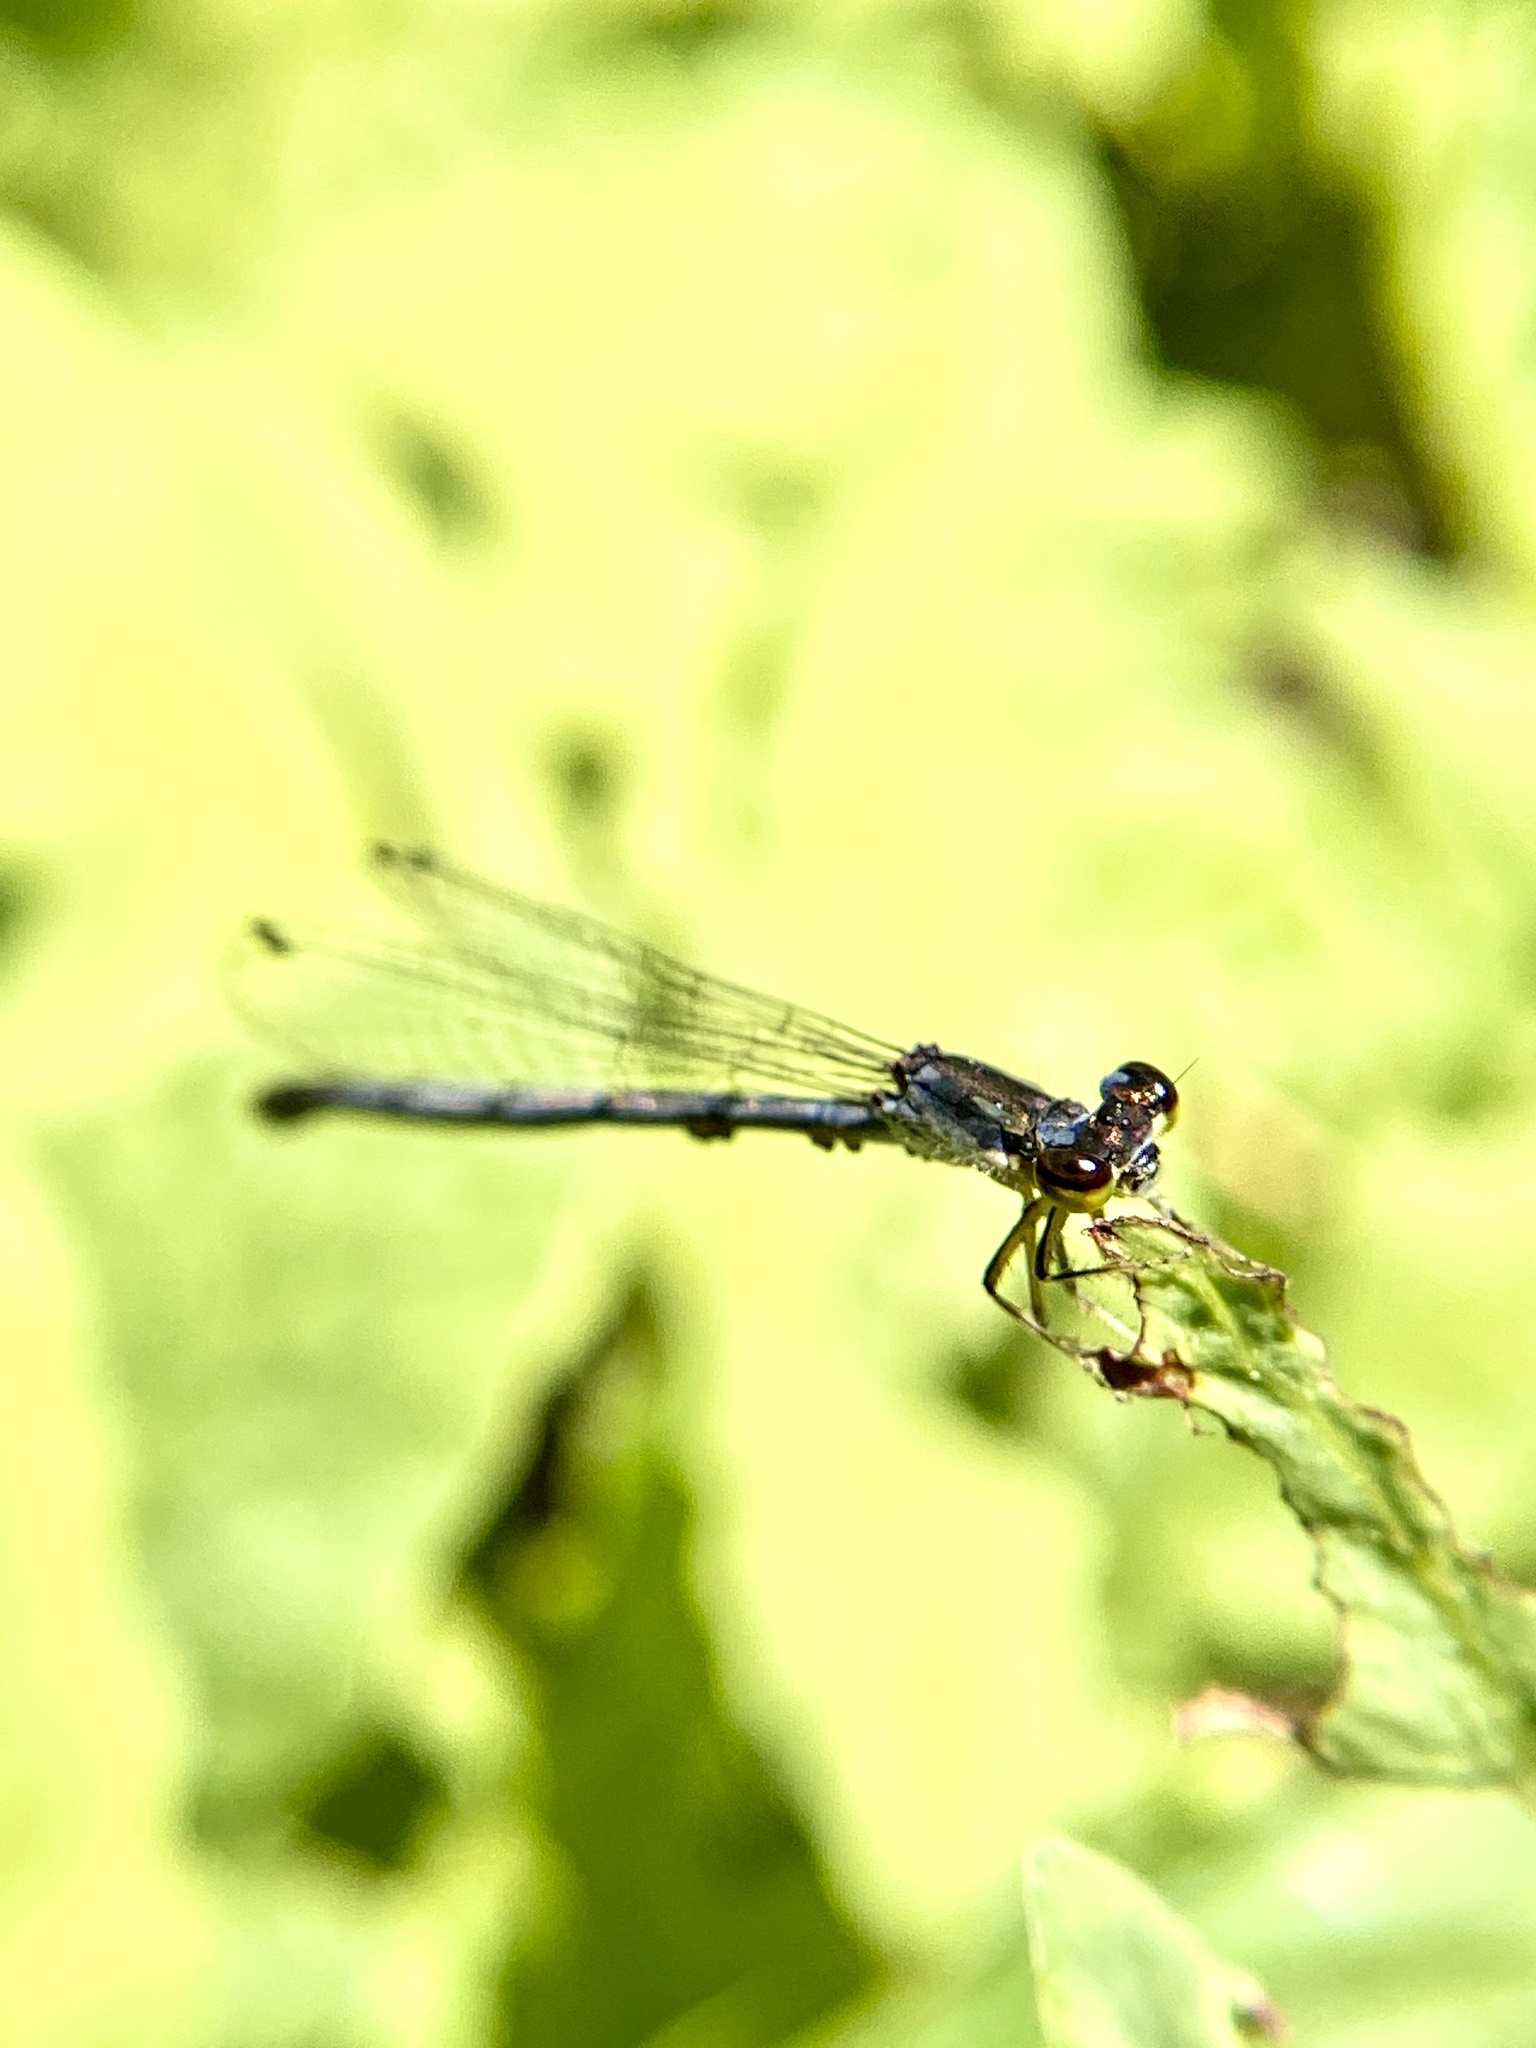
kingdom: Animalia
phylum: Arthropoda
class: Insecta
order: Odonata
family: Coenagrionidae
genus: Ischnura
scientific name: Ischnura posita
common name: Fragile forktail
